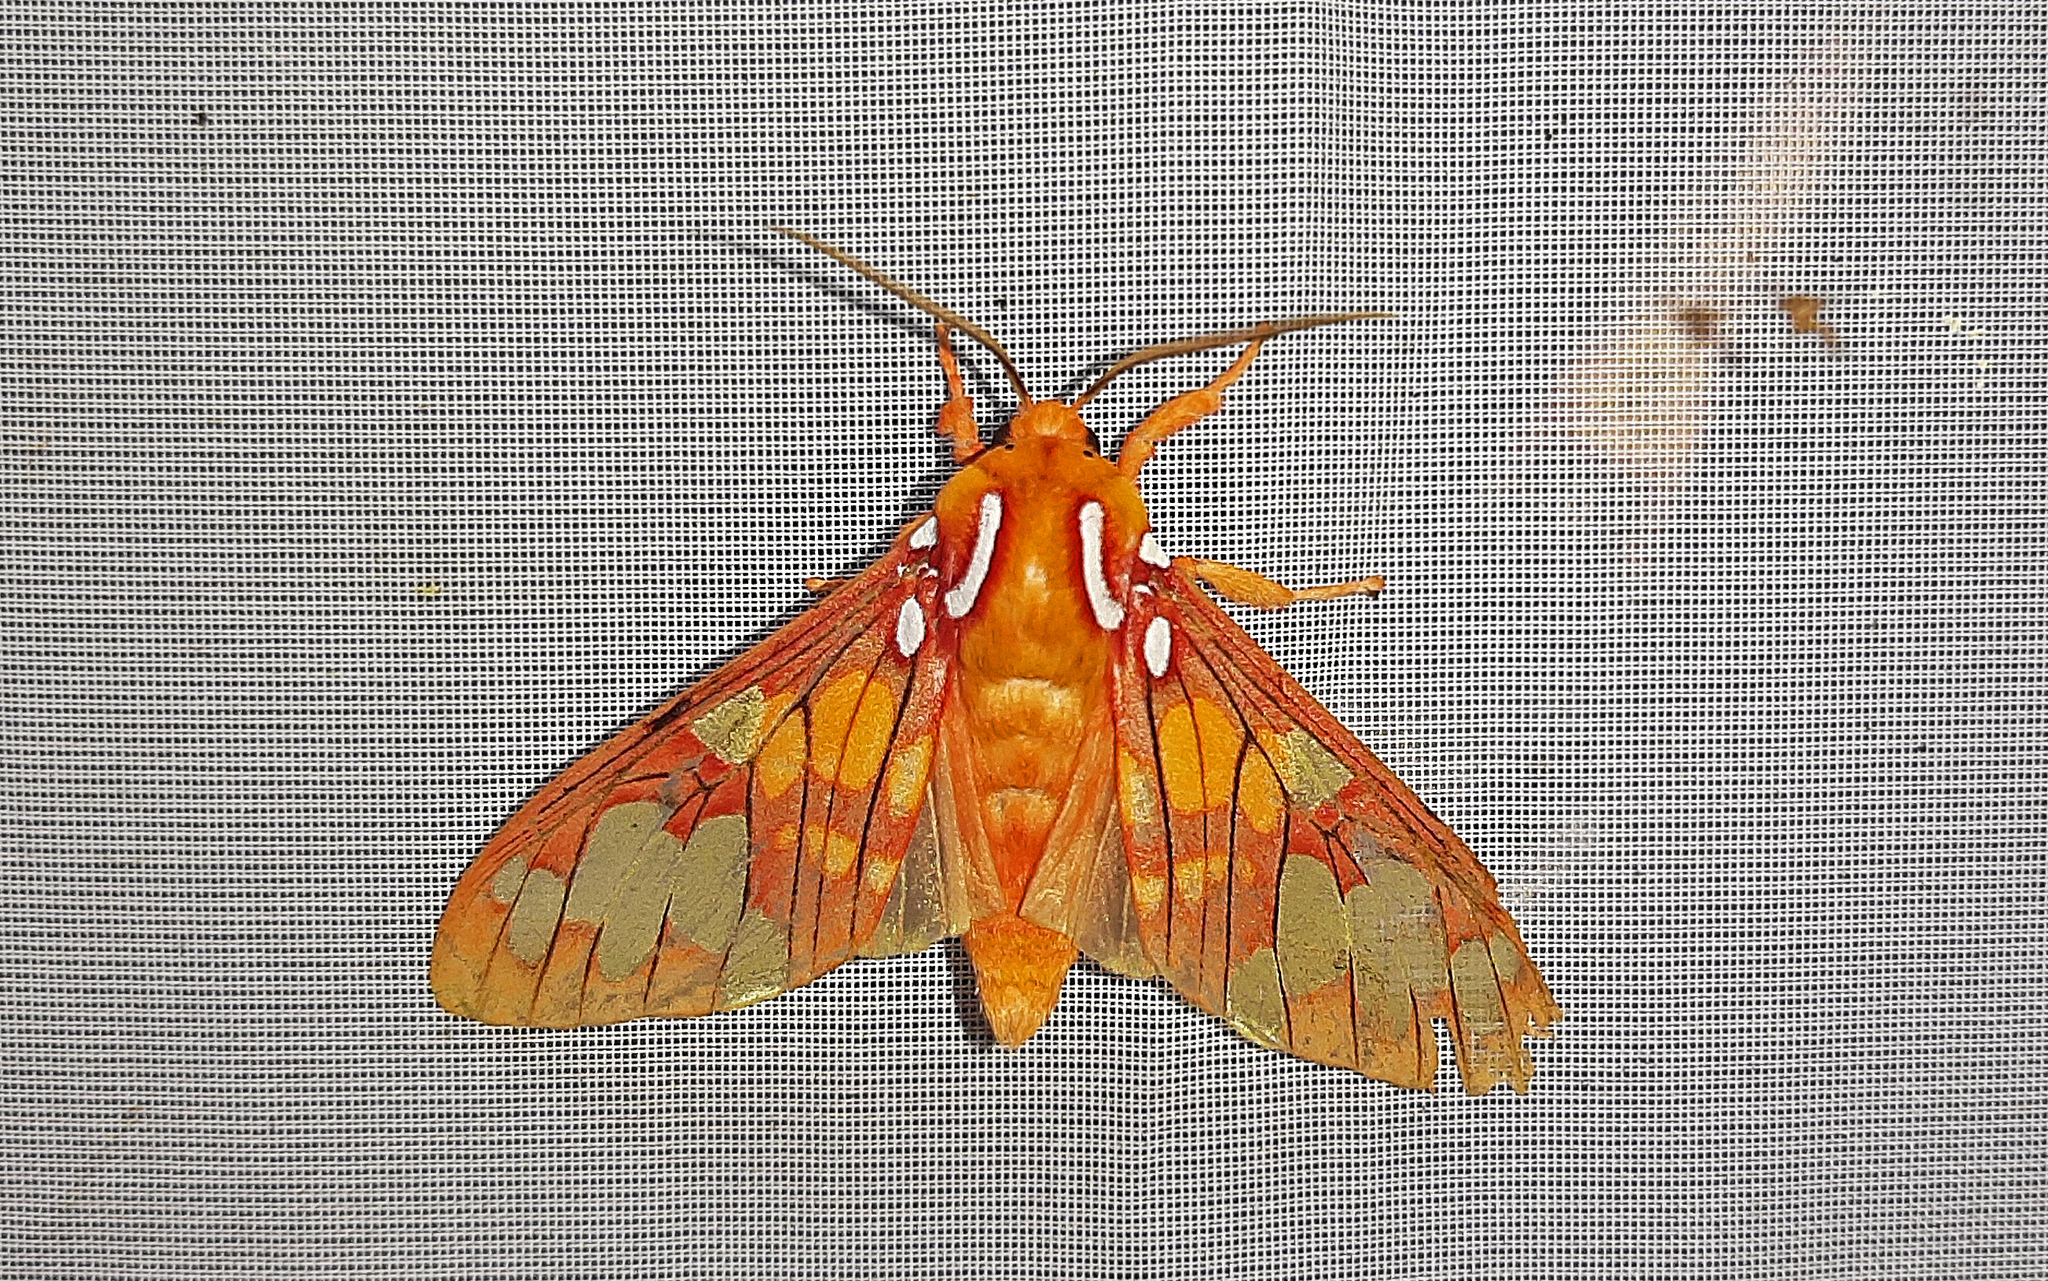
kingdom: Animalia
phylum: Arthropoda
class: Insecta
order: Lepidoptera
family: Erebidae
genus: Echeta
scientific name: Echeta grandis
